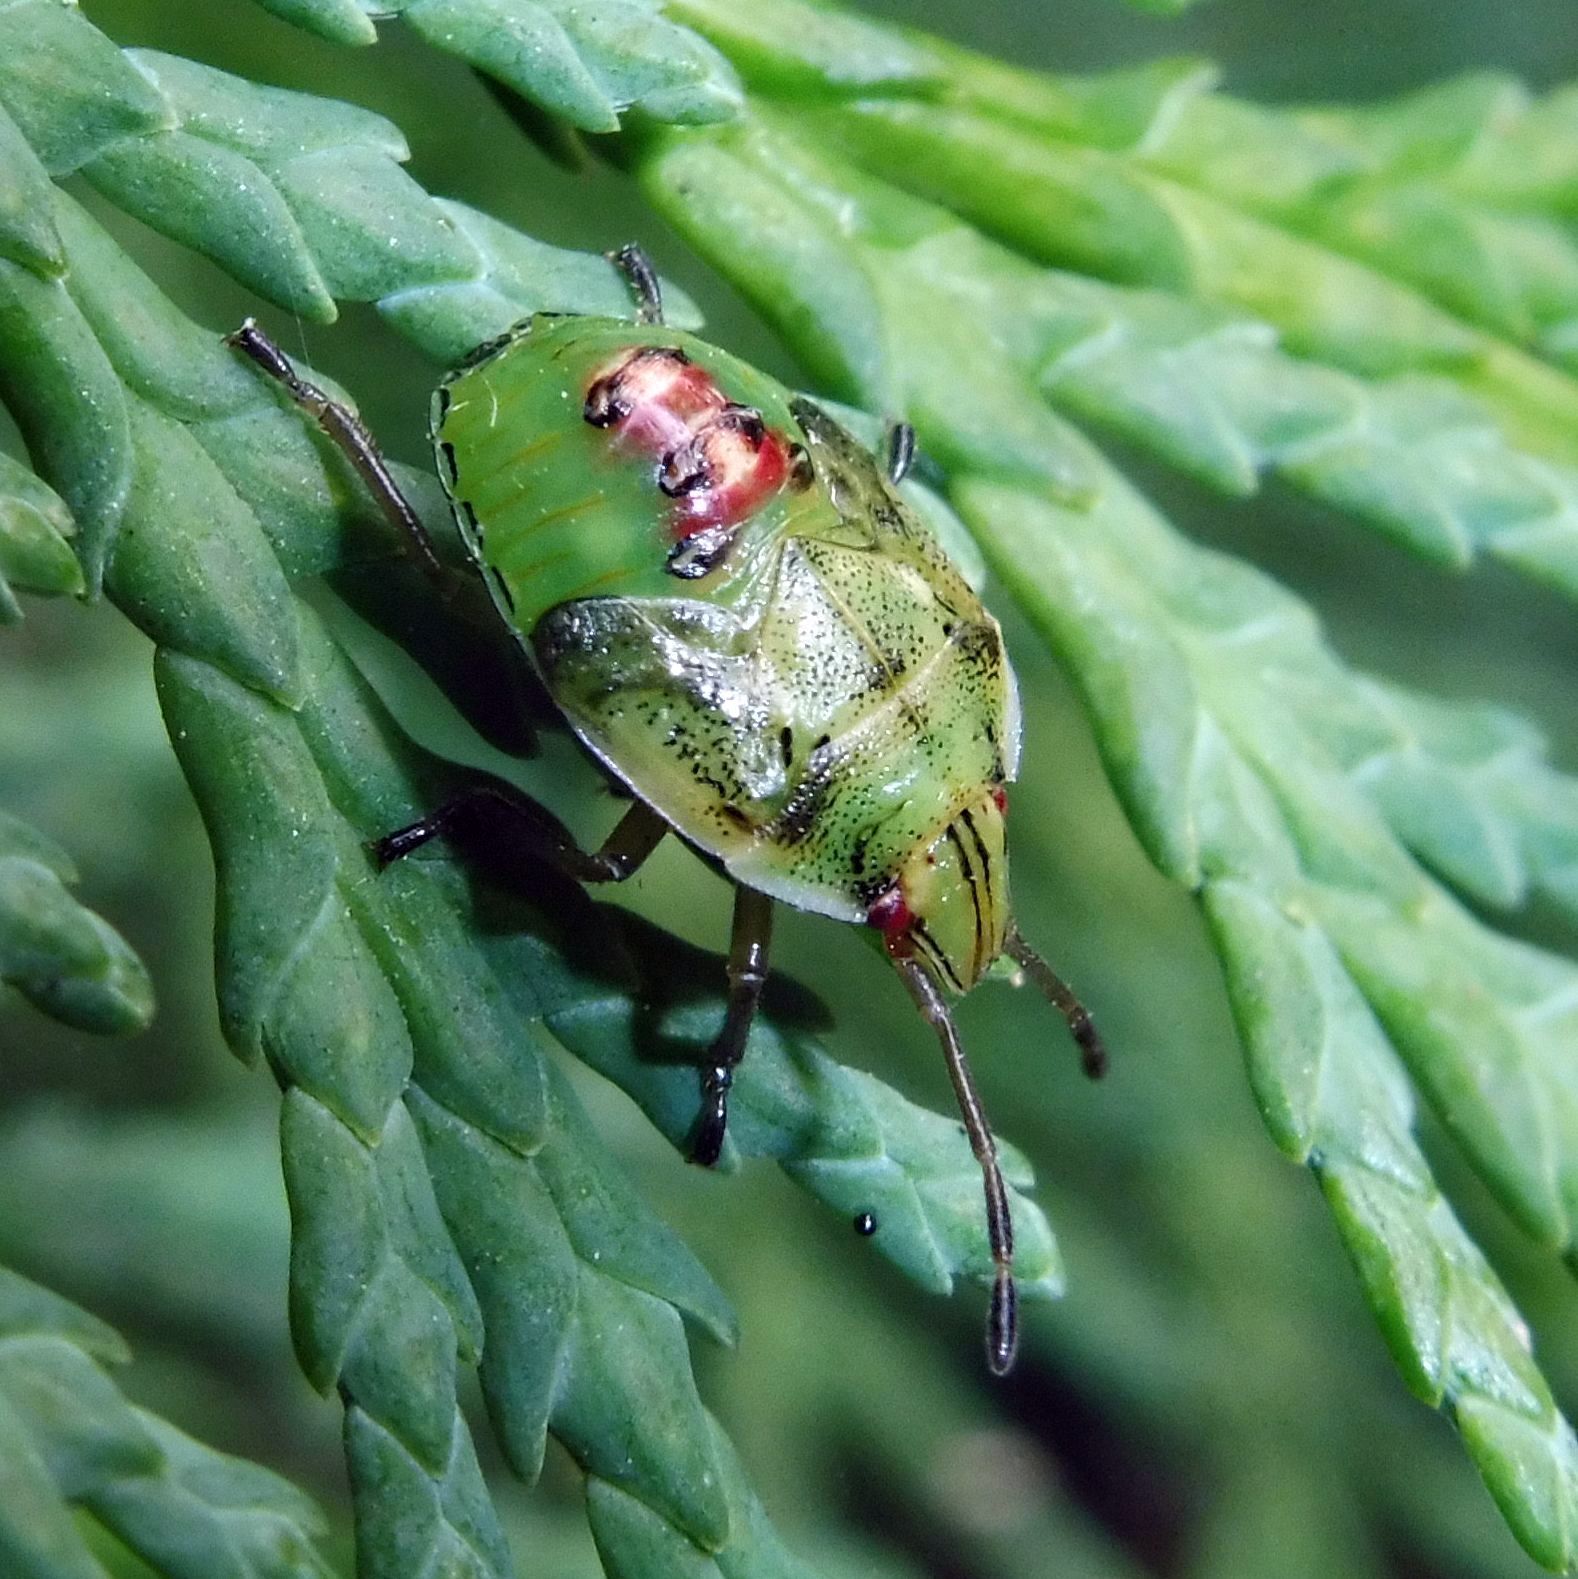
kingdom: Animalia
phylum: Arthropoda
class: Insecta
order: Hemiptera
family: Acanthosomatidae
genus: Cyphostethus
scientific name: Cyphostethus tristriatus
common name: Juniper shieldbug
